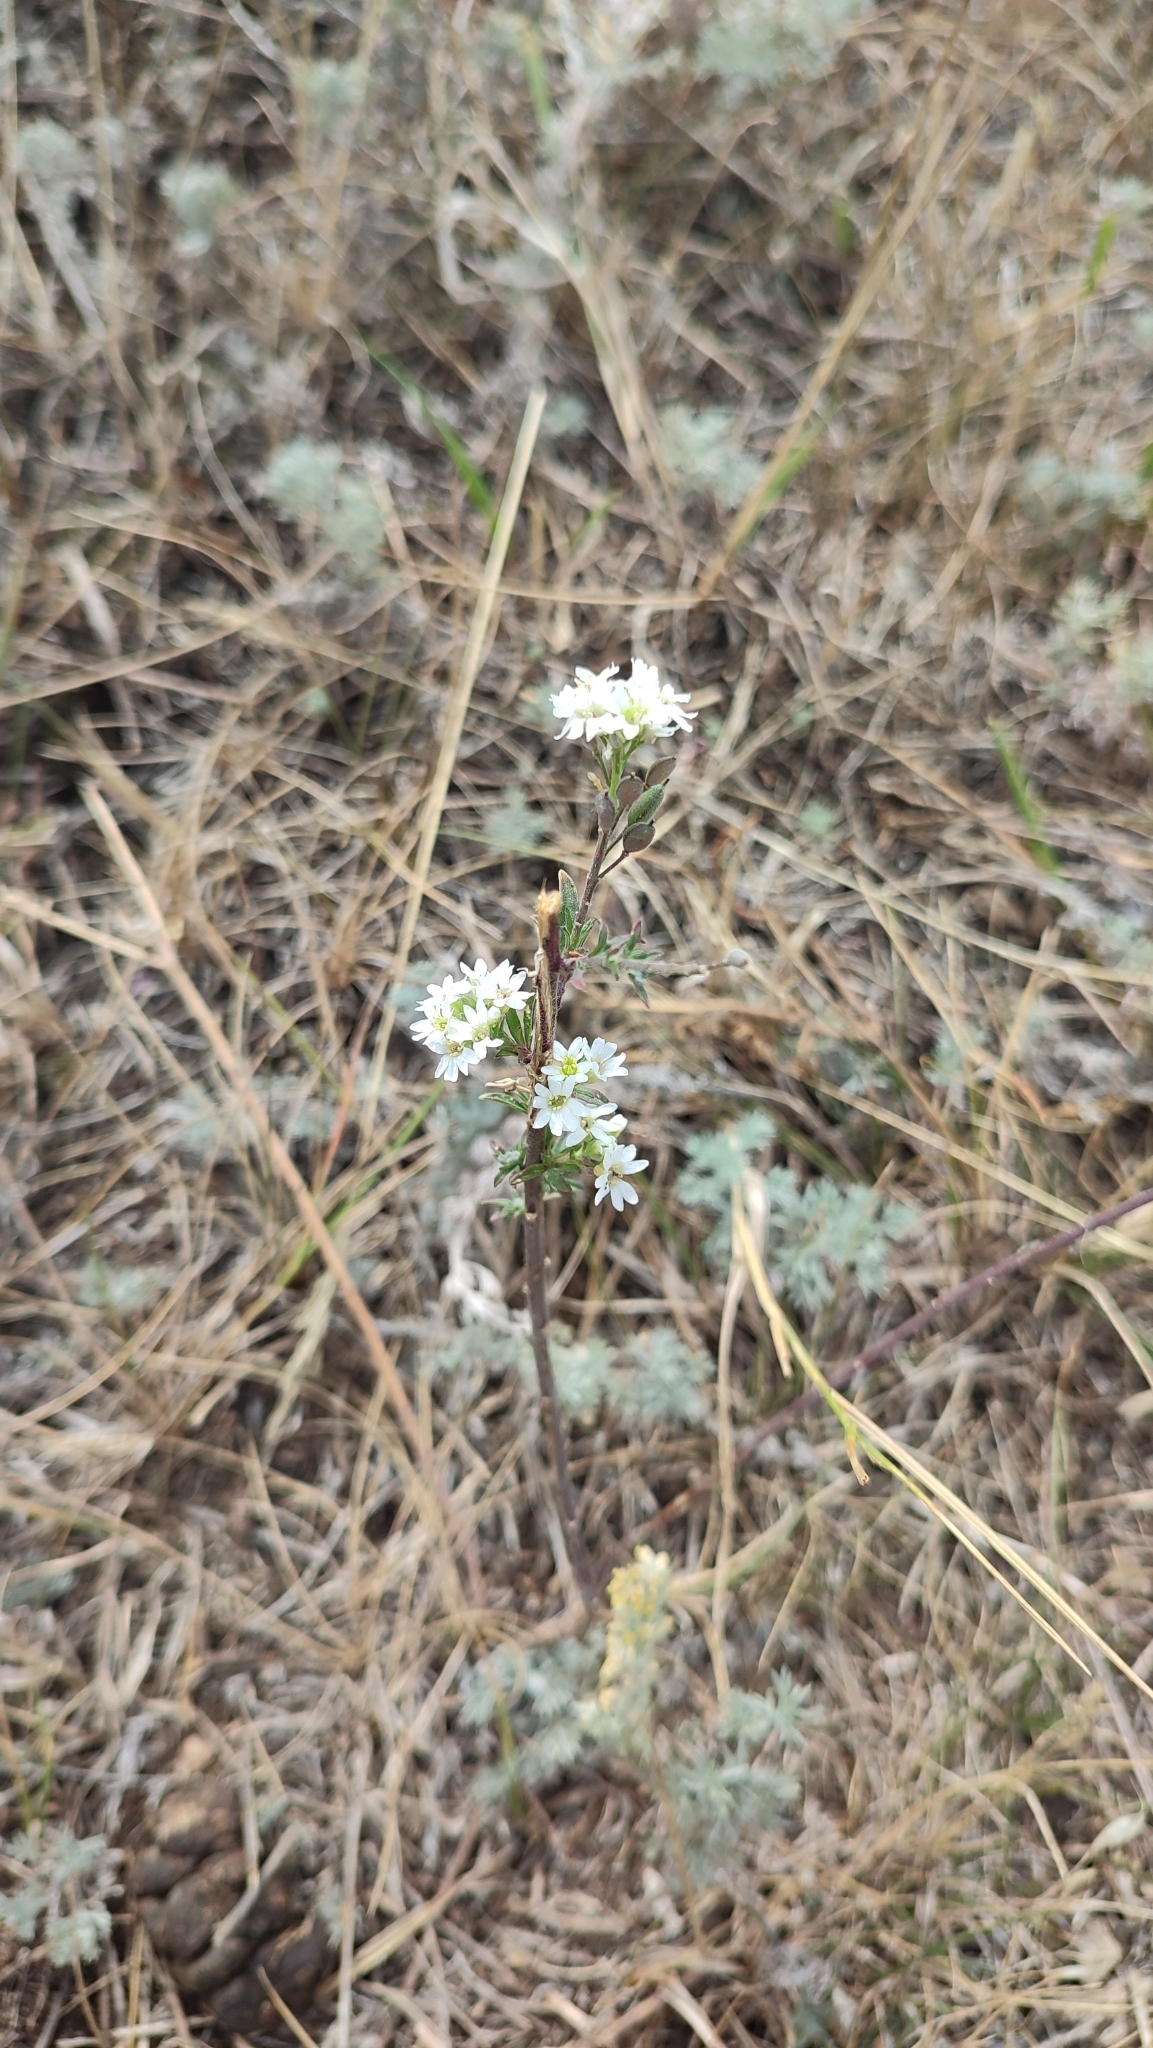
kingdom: Plantae
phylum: Tracheophyta
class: Magnoliopsida
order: Brassicales
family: Brassicaceae
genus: Berteroa
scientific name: Berteroa incana
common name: Hoary alison
